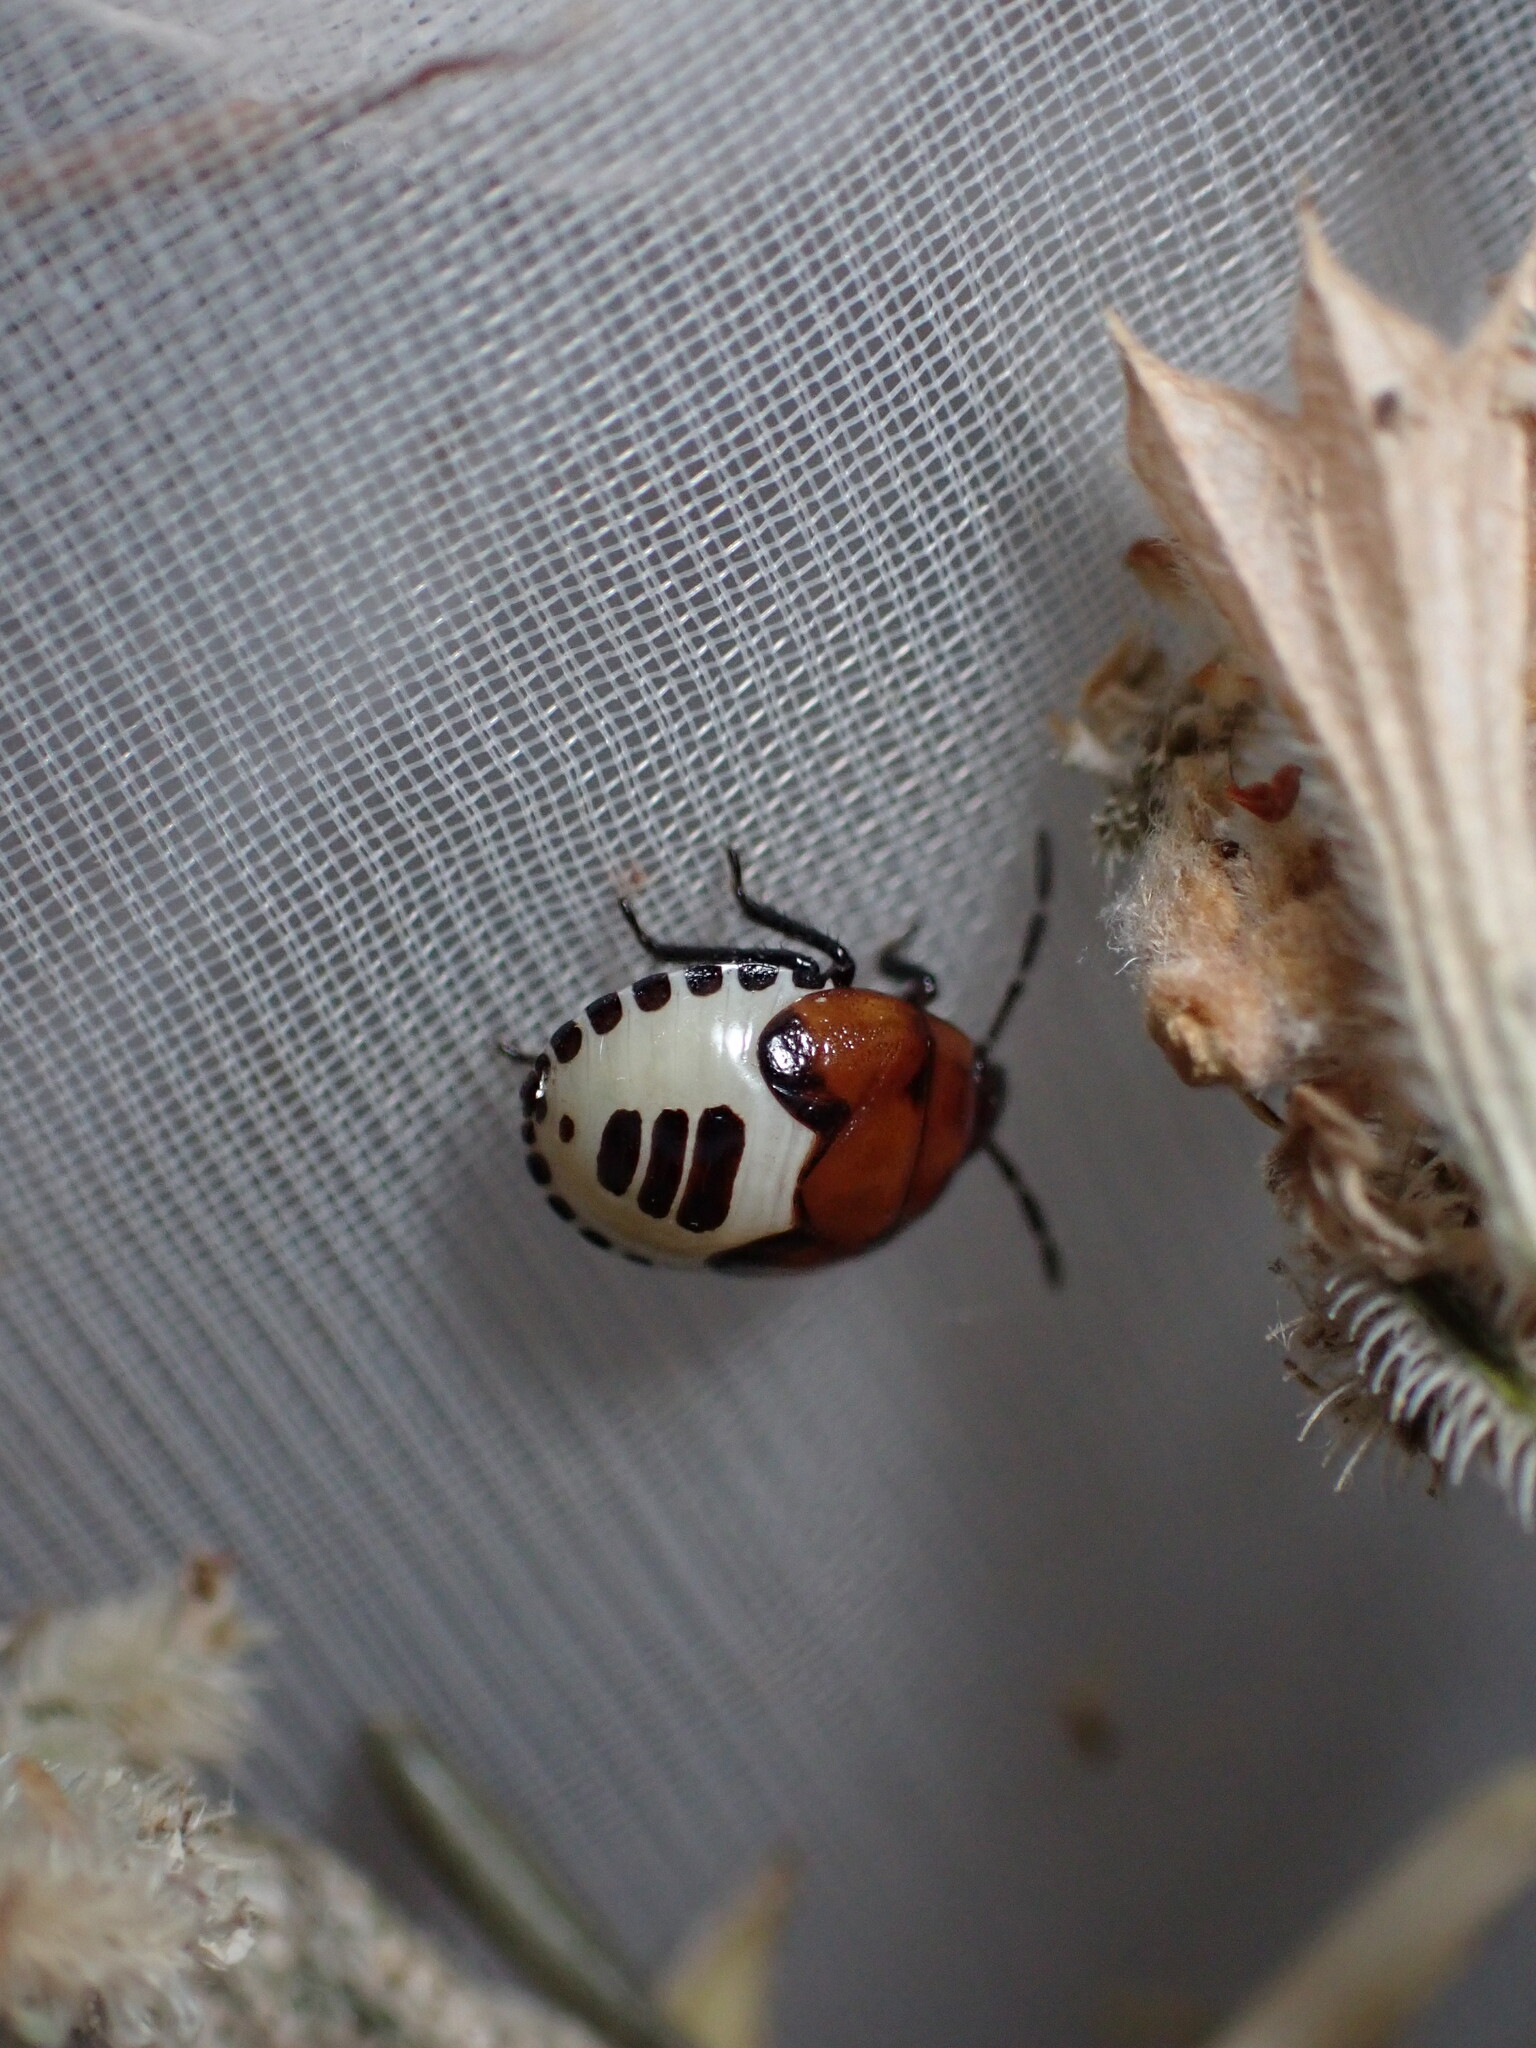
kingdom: Animalia
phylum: Arthropoda
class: Insecta
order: Hemiptera
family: Cydnidae
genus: Tritomegas
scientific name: Tritomegas sexmaculatus
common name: Rambur's pied shieldbug
